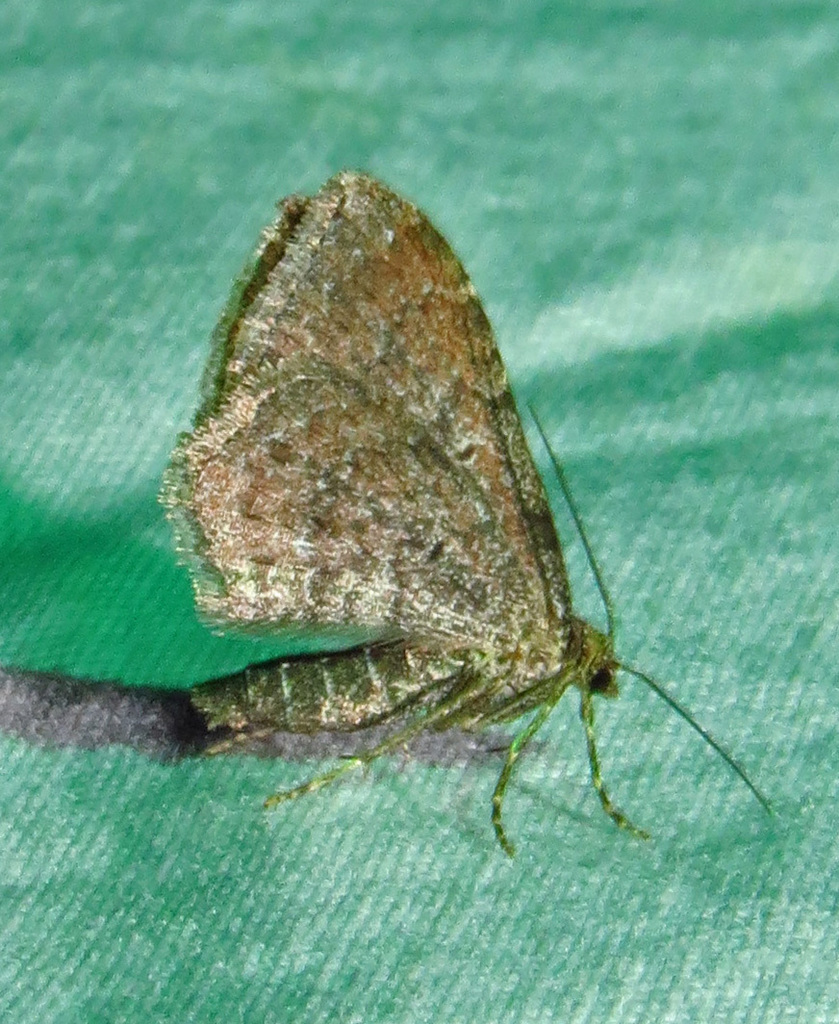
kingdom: Animalia
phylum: Arthropoda
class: Insecta
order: Lepidoptera
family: Noctuidae
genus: Galgula
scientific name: Galgula partita
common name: Wedgeling
